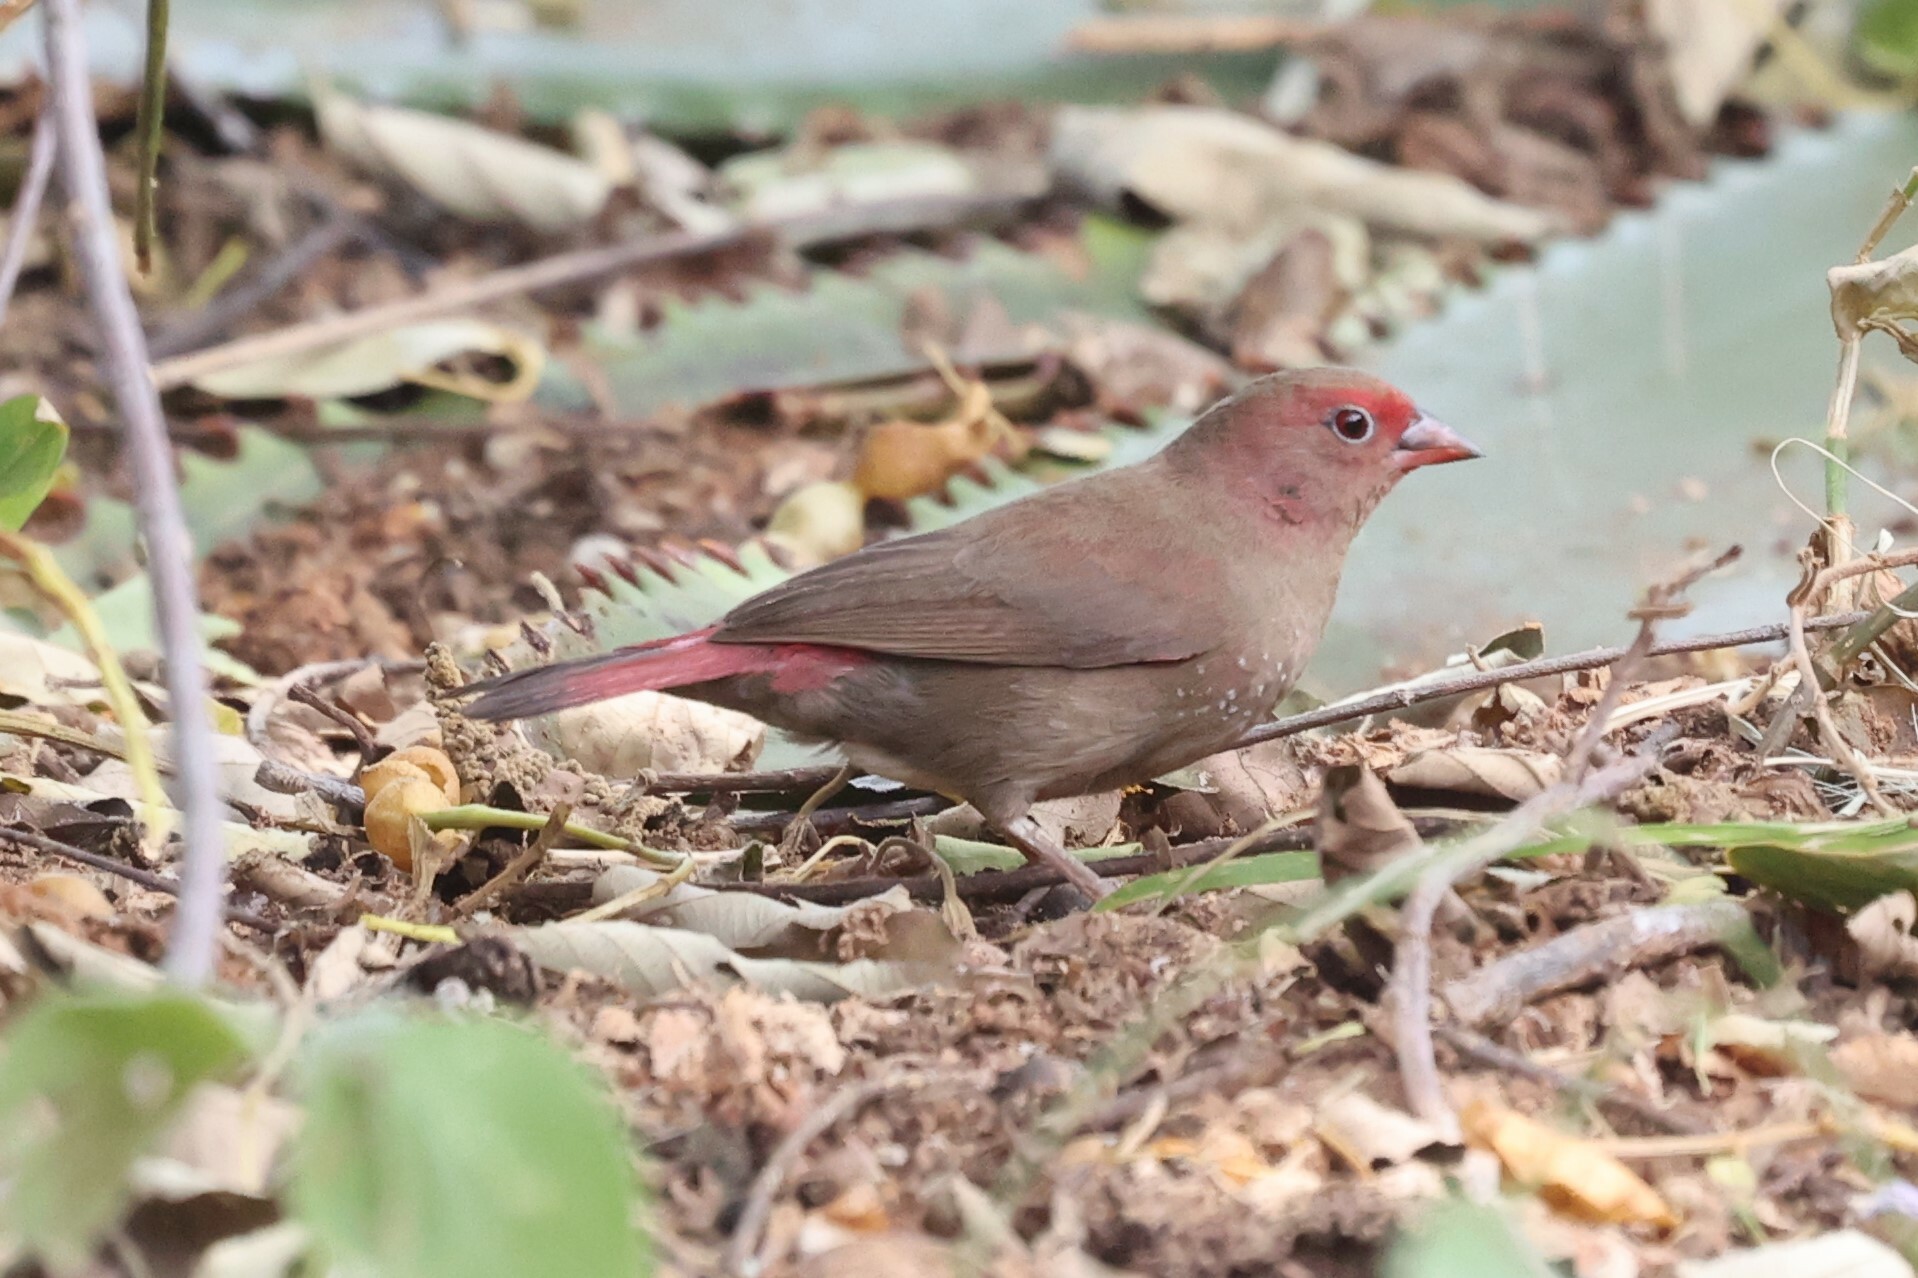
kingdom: Animalia
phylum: Chordata
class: Aves
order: Passeriformes
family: Estrildidae
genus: Lagonosticta
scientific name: Lagonosticta senegala
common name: Red-billed firefinch
